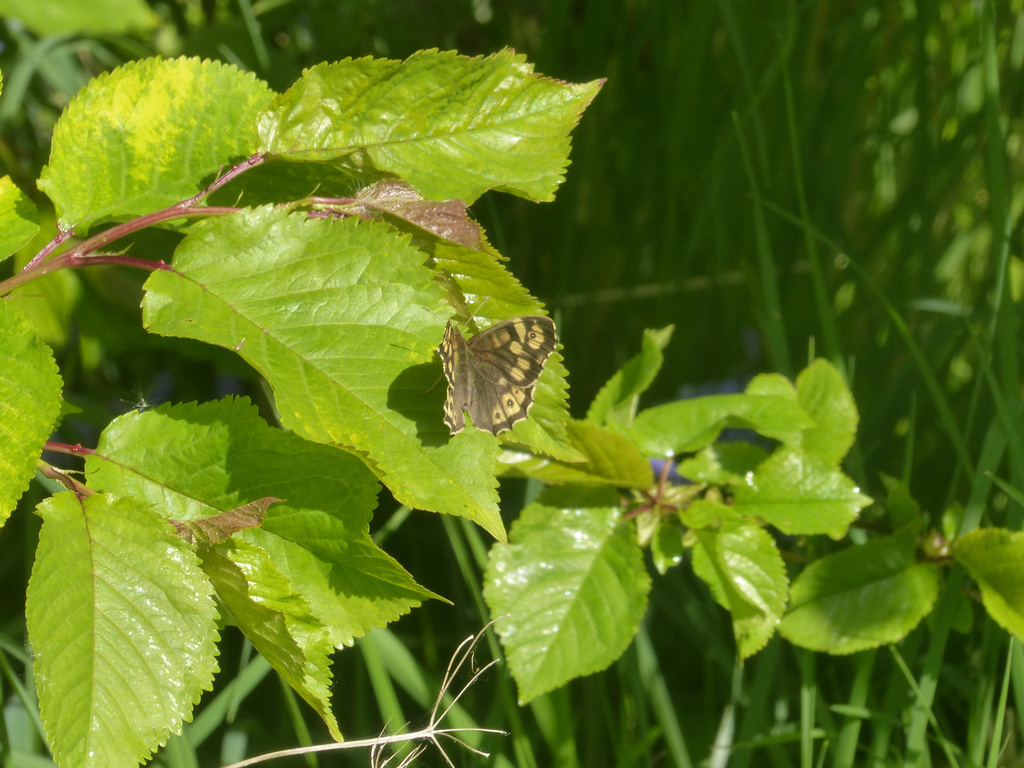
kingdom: Animalia
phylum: Arthropoda
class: Insecta
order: Lepidoptera
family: Nymphalidae
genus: Pararge
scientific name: Pararge aegeria
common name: Speckled wood
